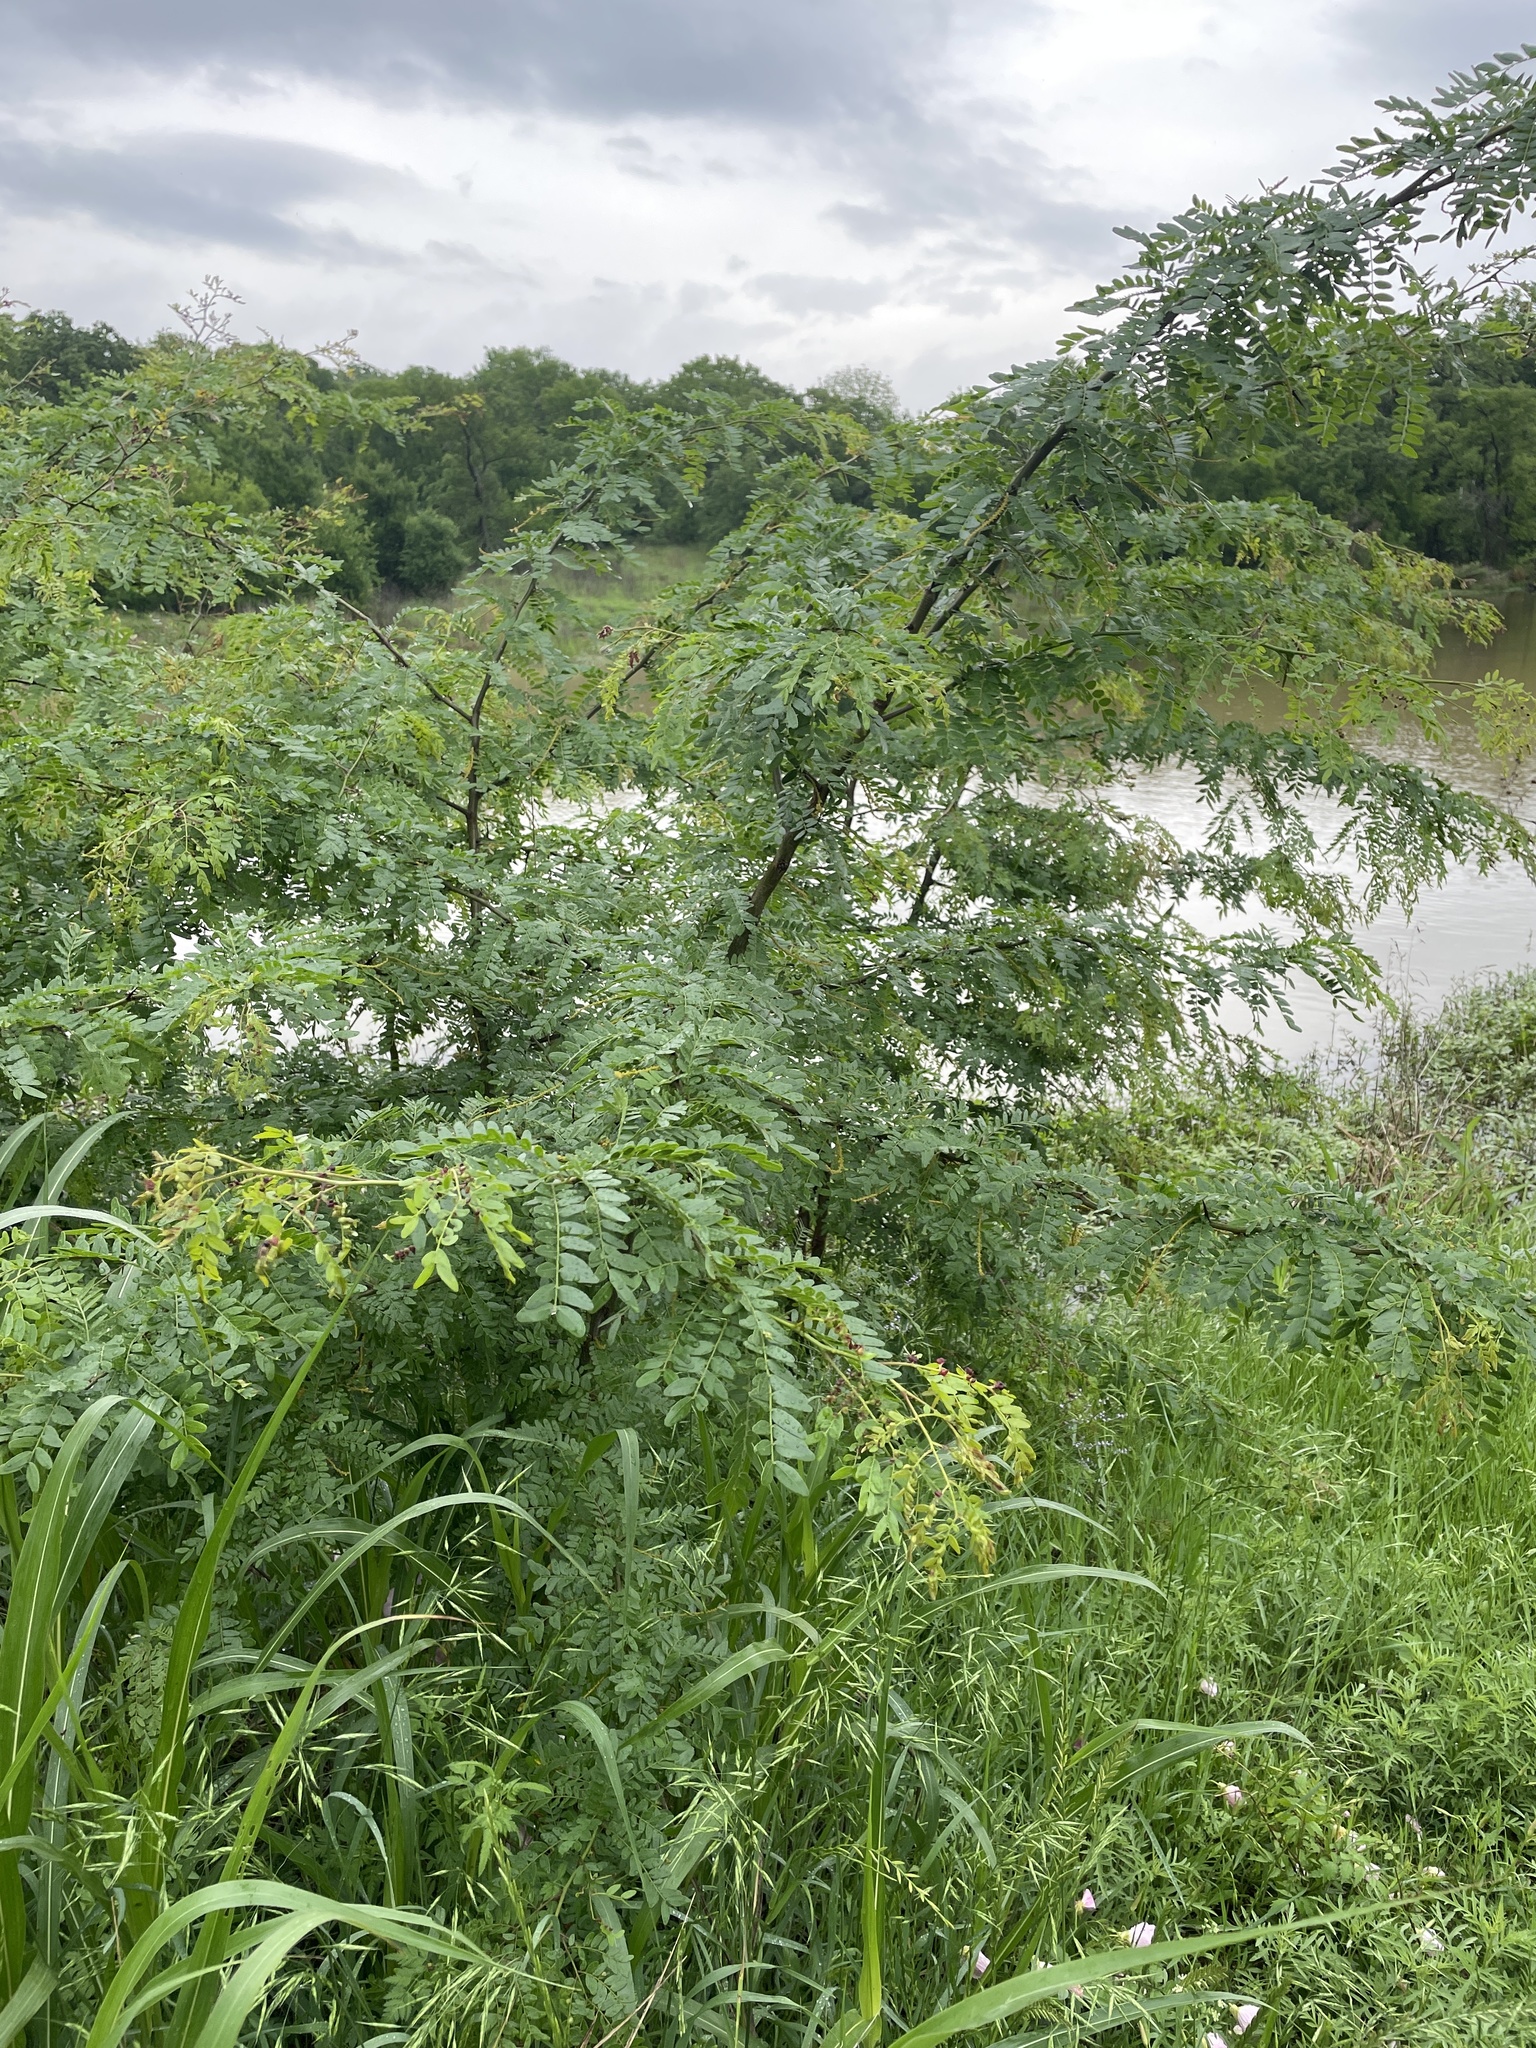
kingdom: Plantae
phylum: Tracheophyta
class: Magnoliopsida
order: Fabales
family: Fabaceae
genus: Gleditsia
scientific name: Gleditsia triacanthos
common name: Common honeylocust
